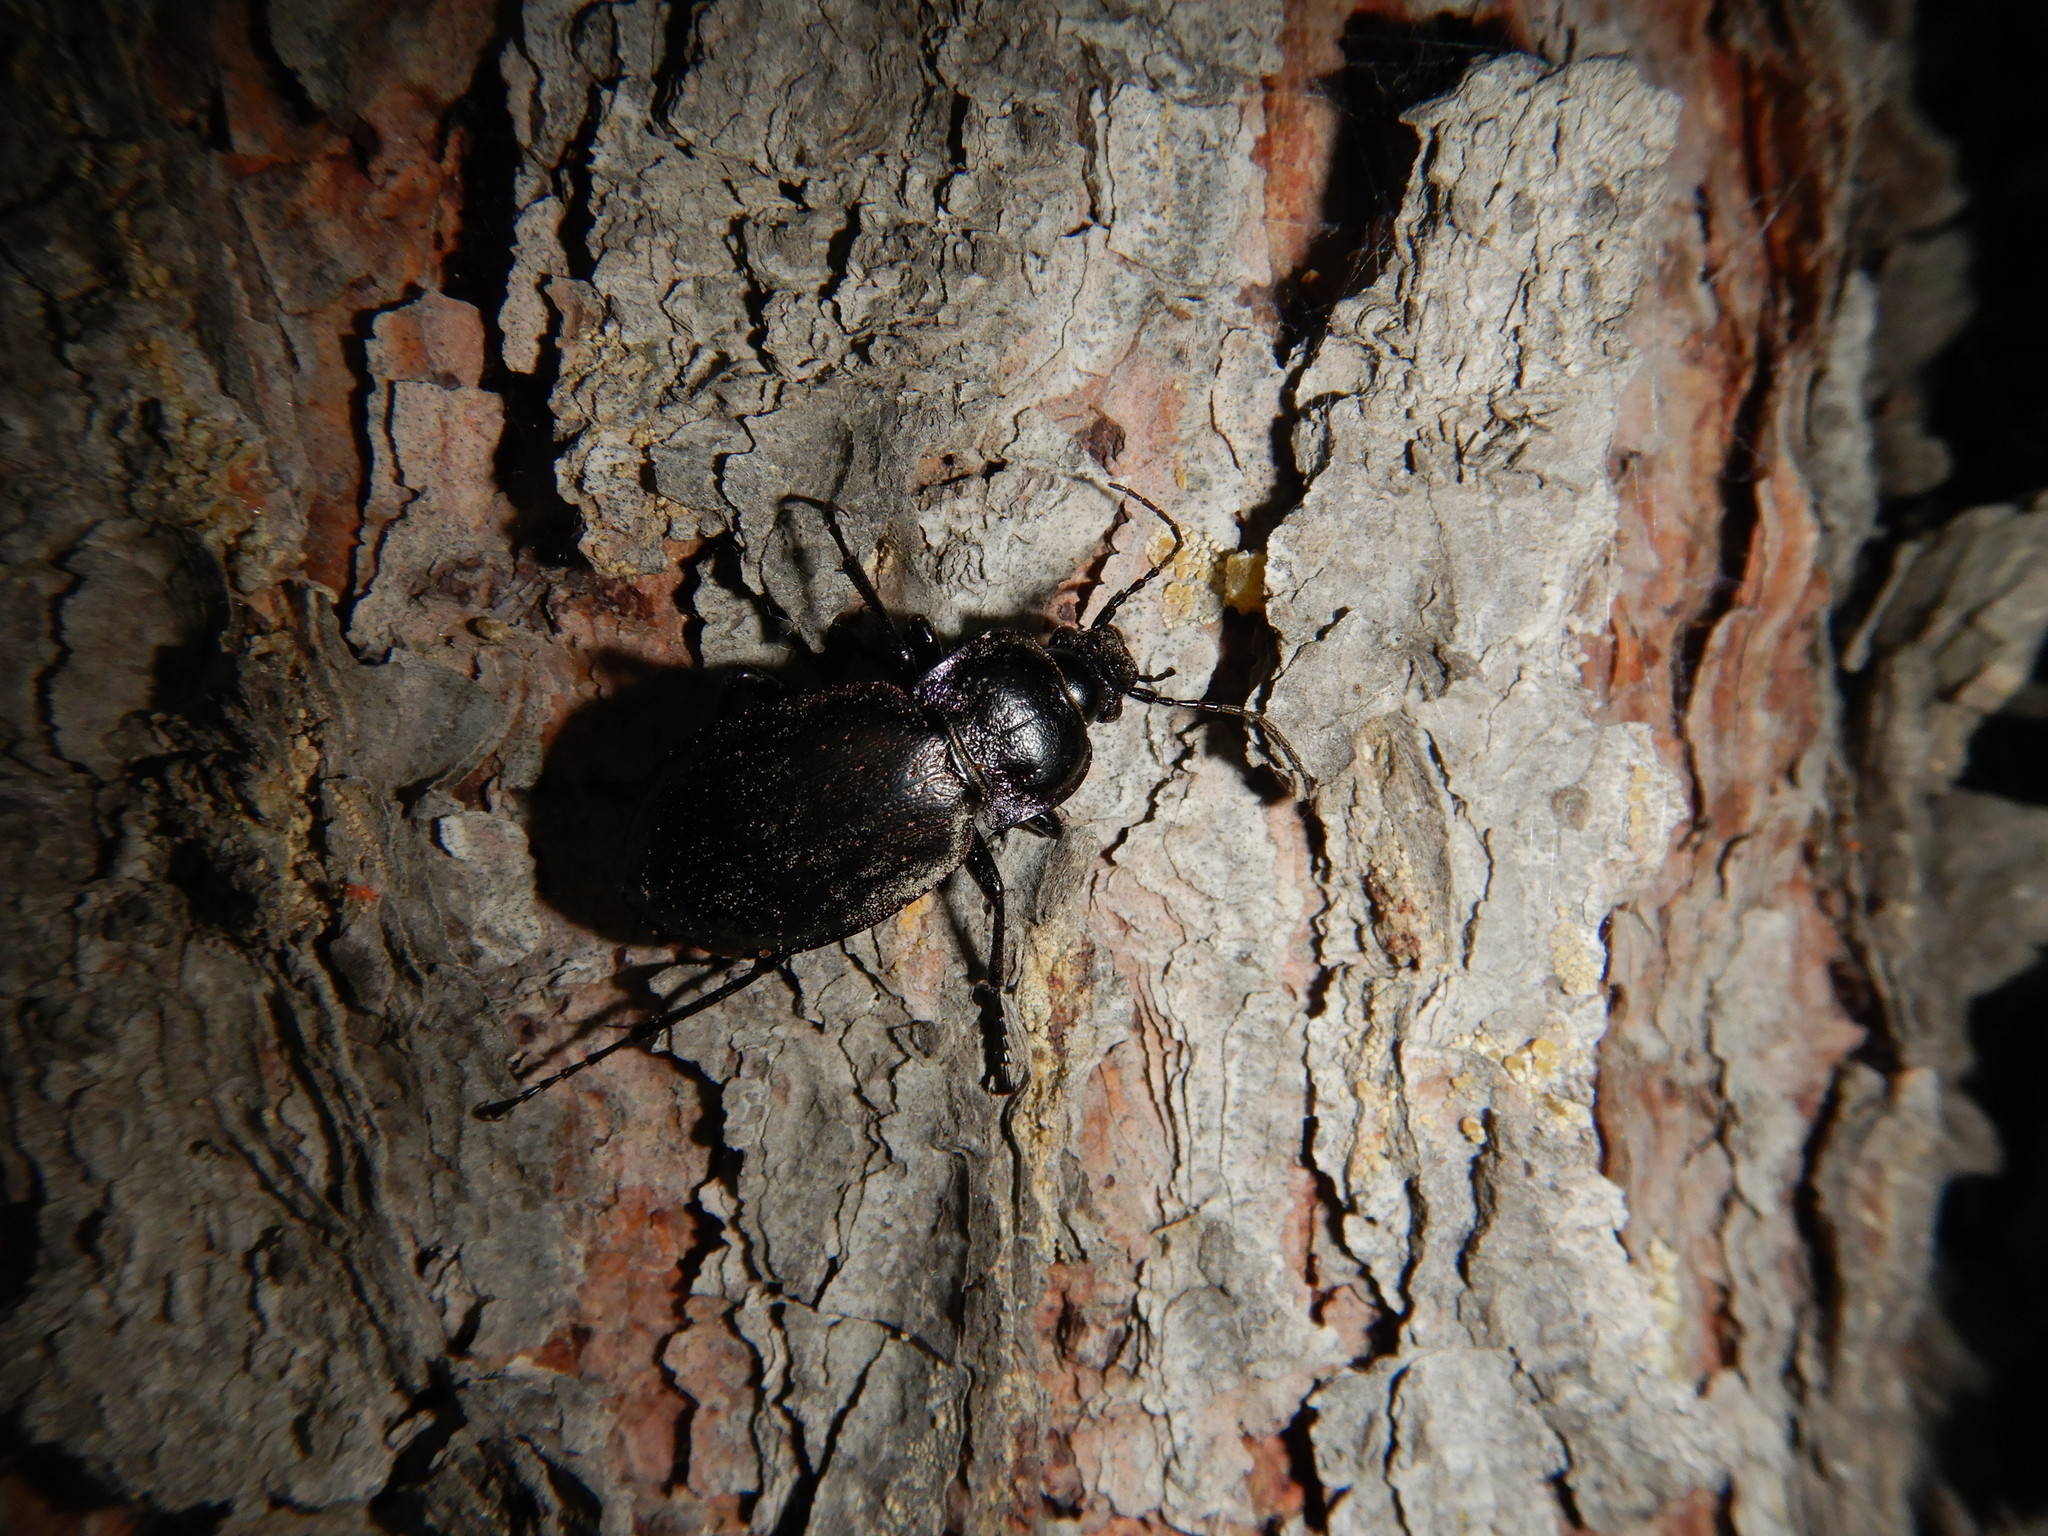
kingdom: Animalia
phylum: Arthropoda
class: Insecta
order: Coleoptera
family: Carabidae
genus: Carabus
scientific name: Carabus nemoralis
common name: European ground beetle
